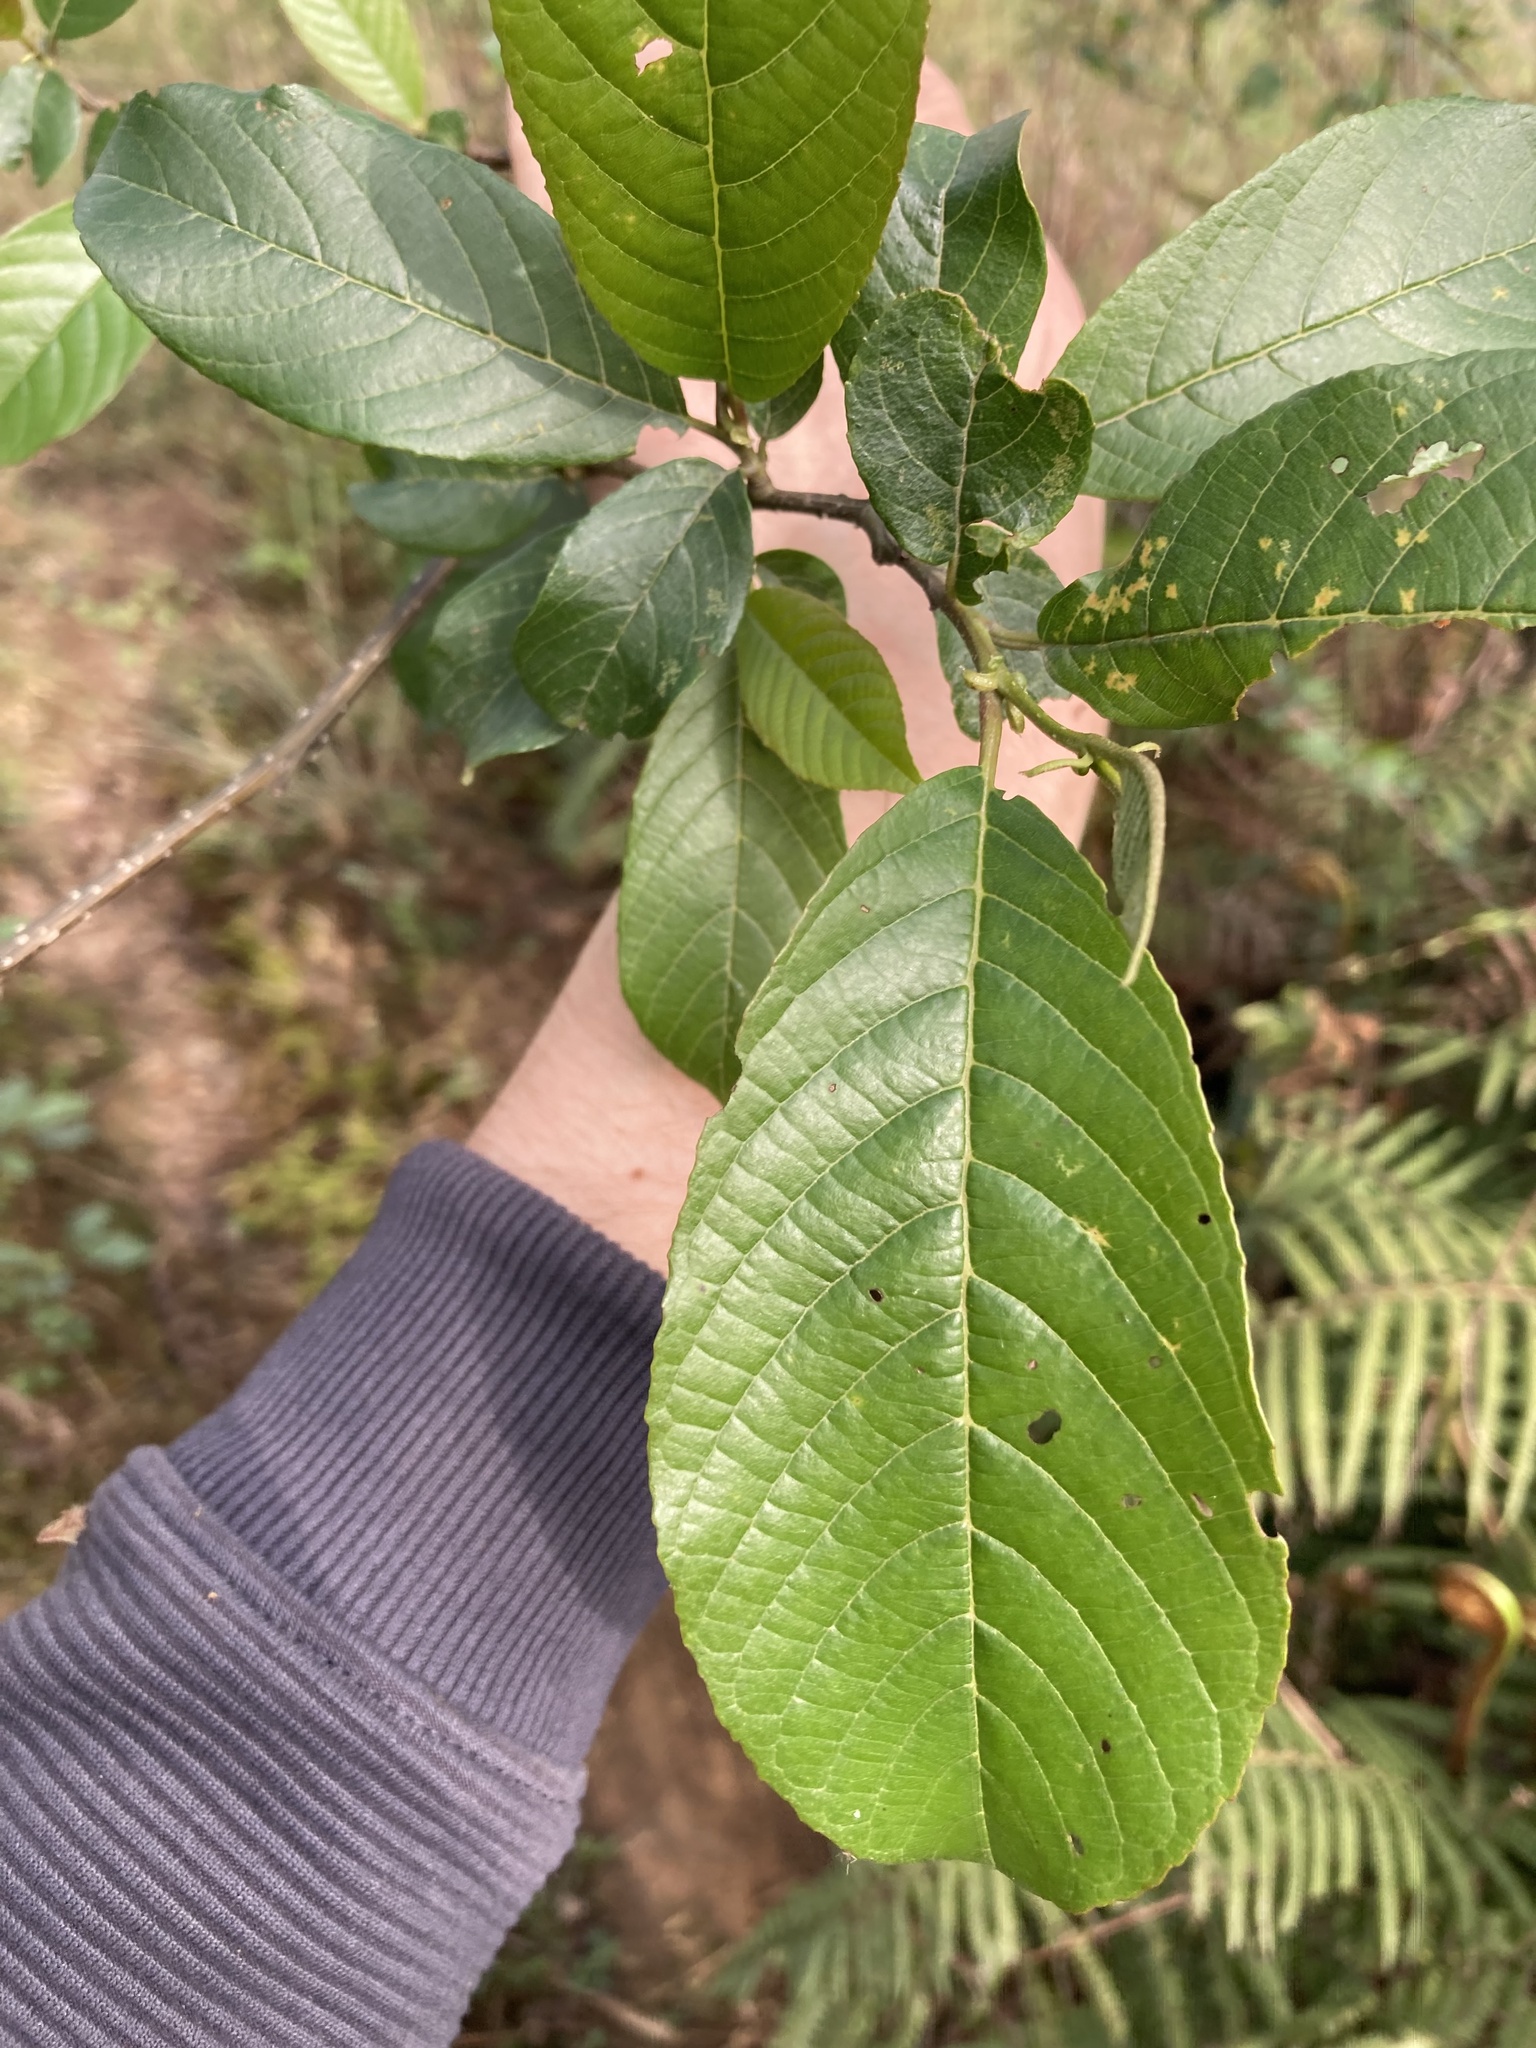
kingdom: Plantae
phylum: Tracheophyta
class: Magnoliopsida
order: Fagales
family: Betulaceae
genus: Alnus
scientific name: Alnus nepalensis
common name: Nepal alder
